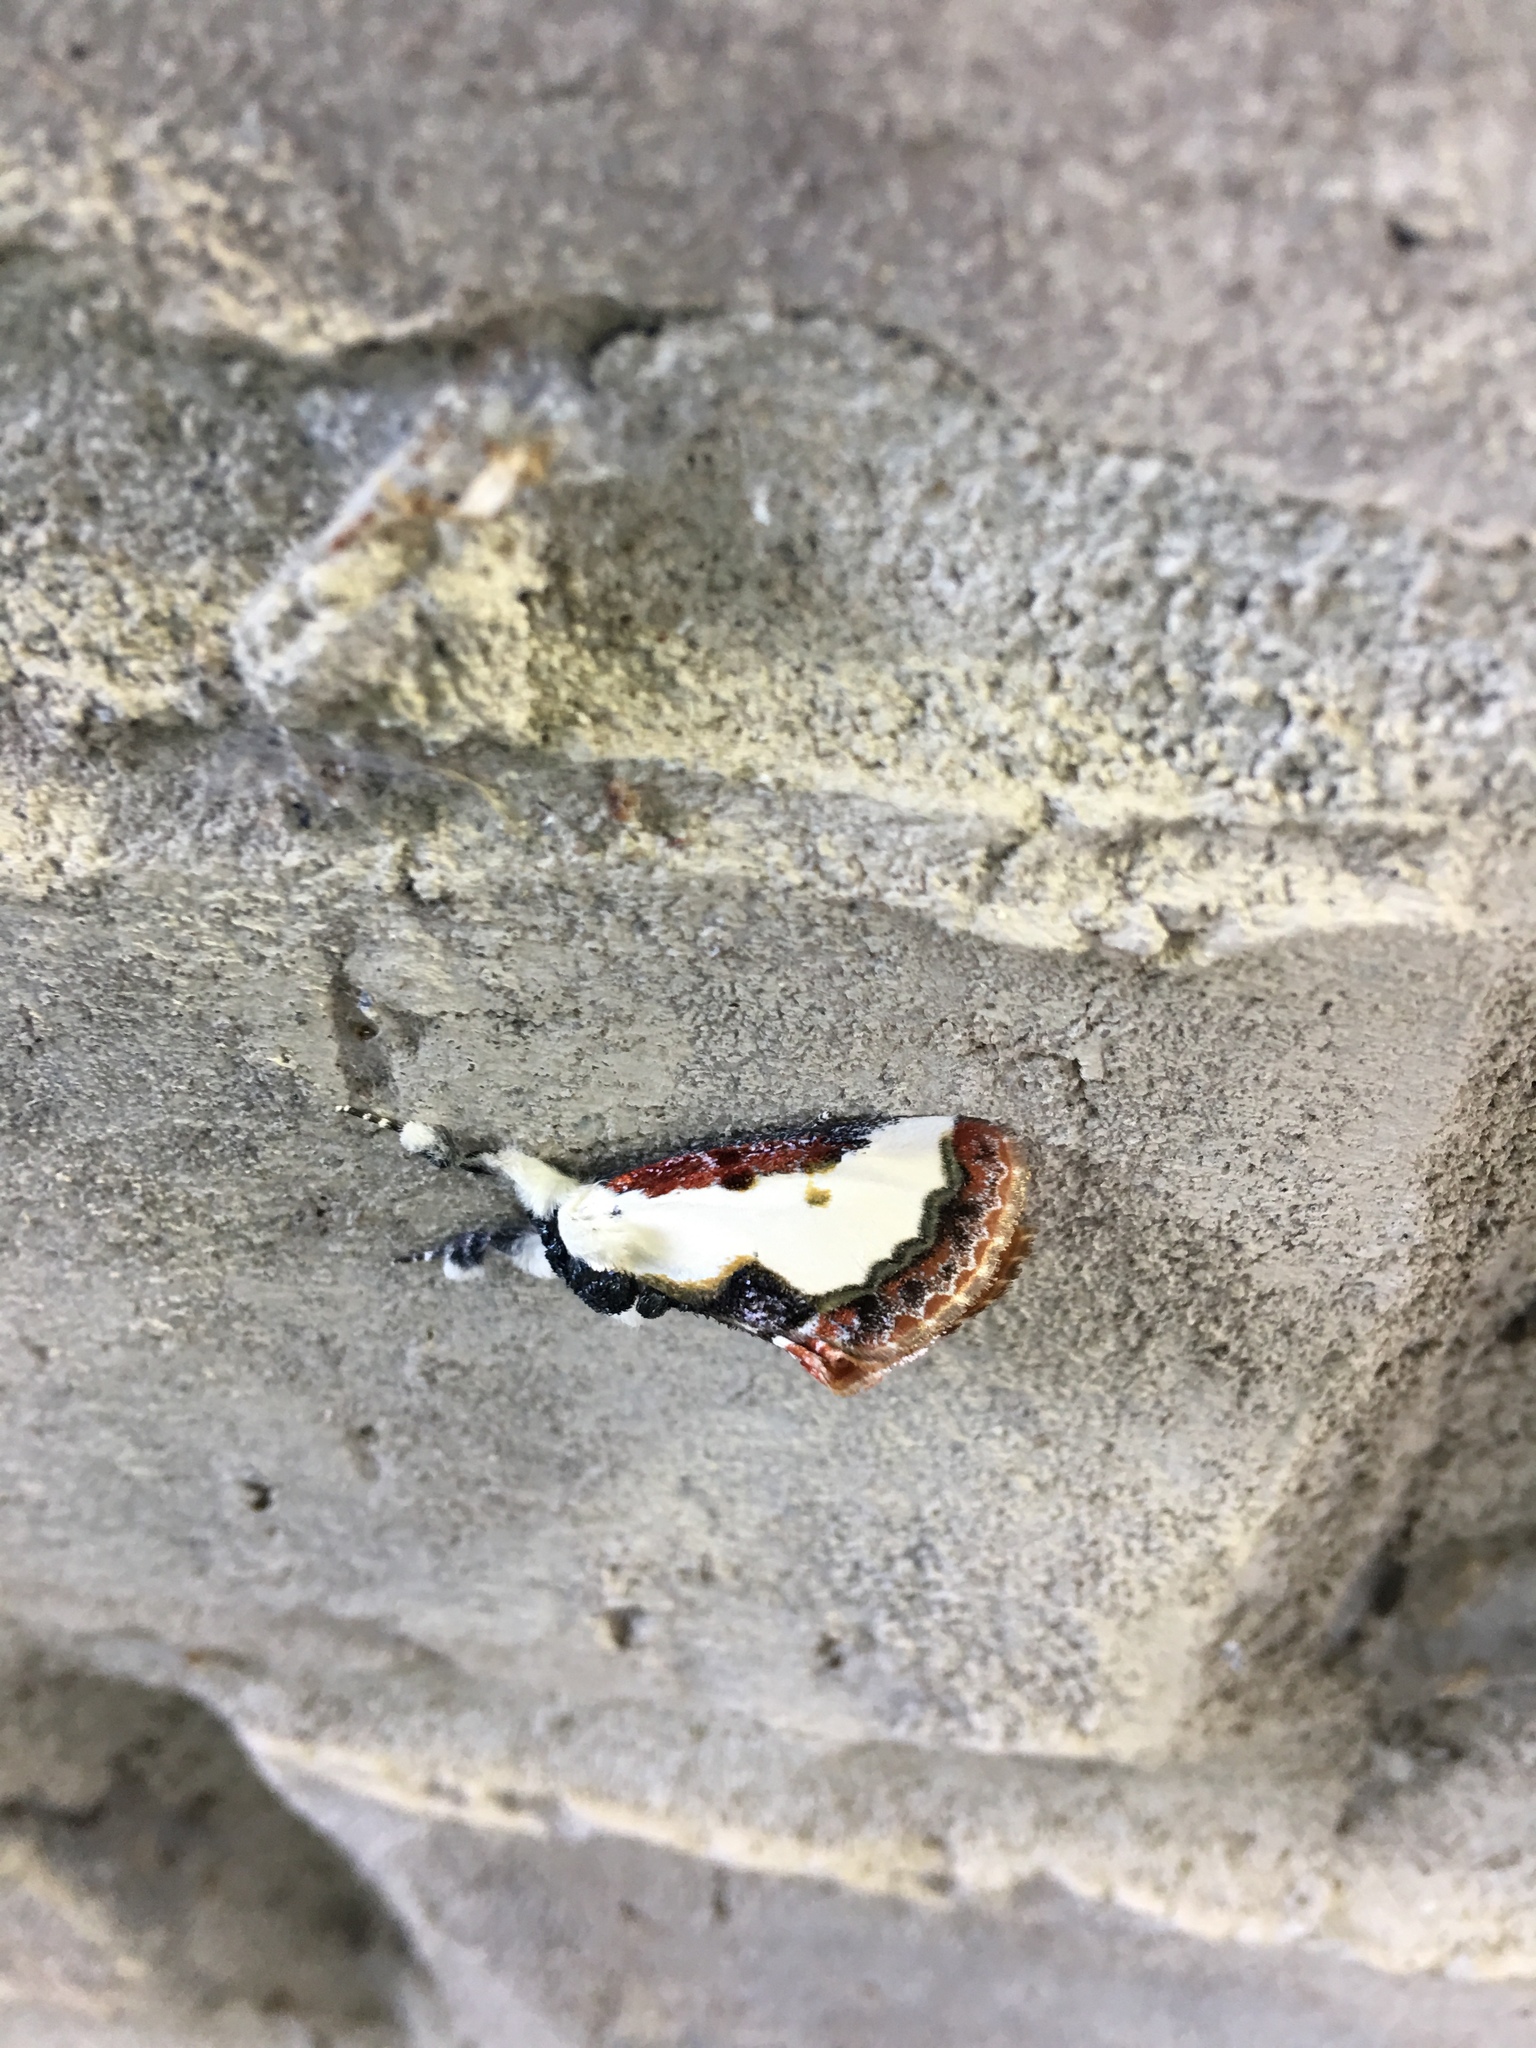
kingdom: Animalia
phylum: Arthropoda
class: Insecta
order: Lepidoptera
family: Noctuidae
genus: Eudryas
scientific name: Eudryas unio
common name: Pearly wood-nymph
